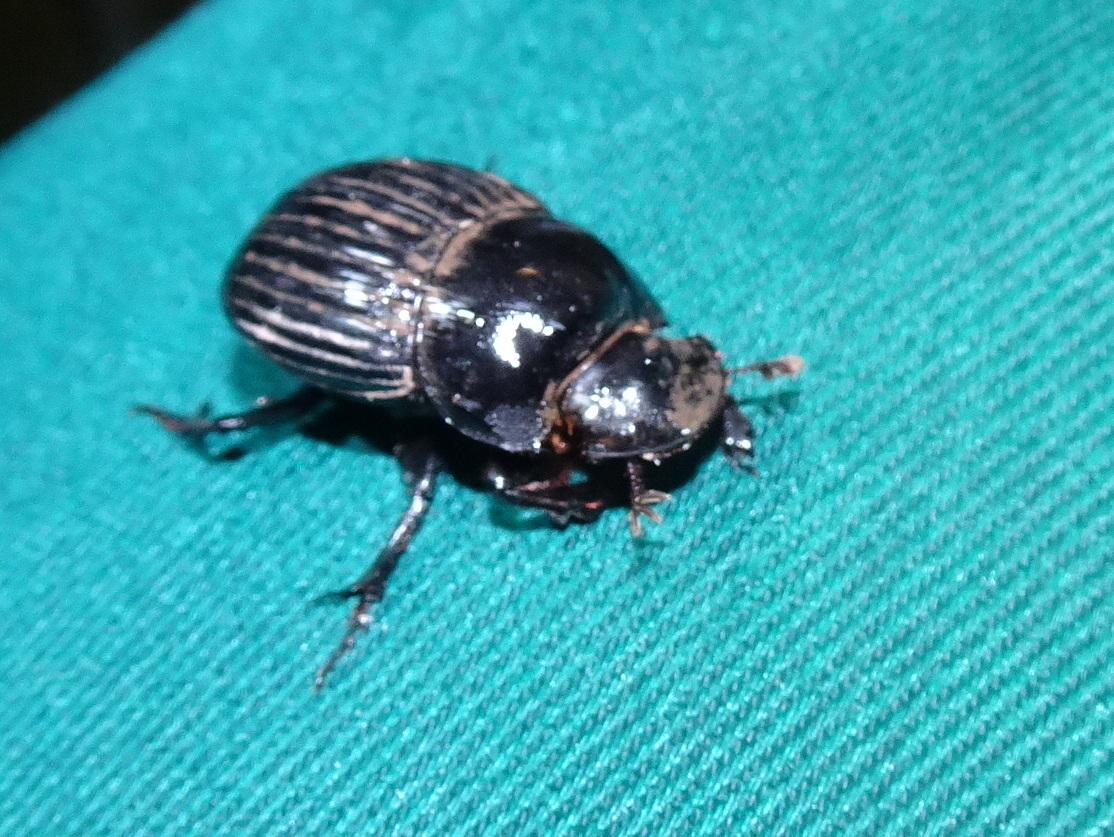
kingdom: Animalia
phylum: Arthropoda
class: Insecta
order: Coleoptera
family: Scarabaeidae
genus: Copris
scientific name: Copris fricator
